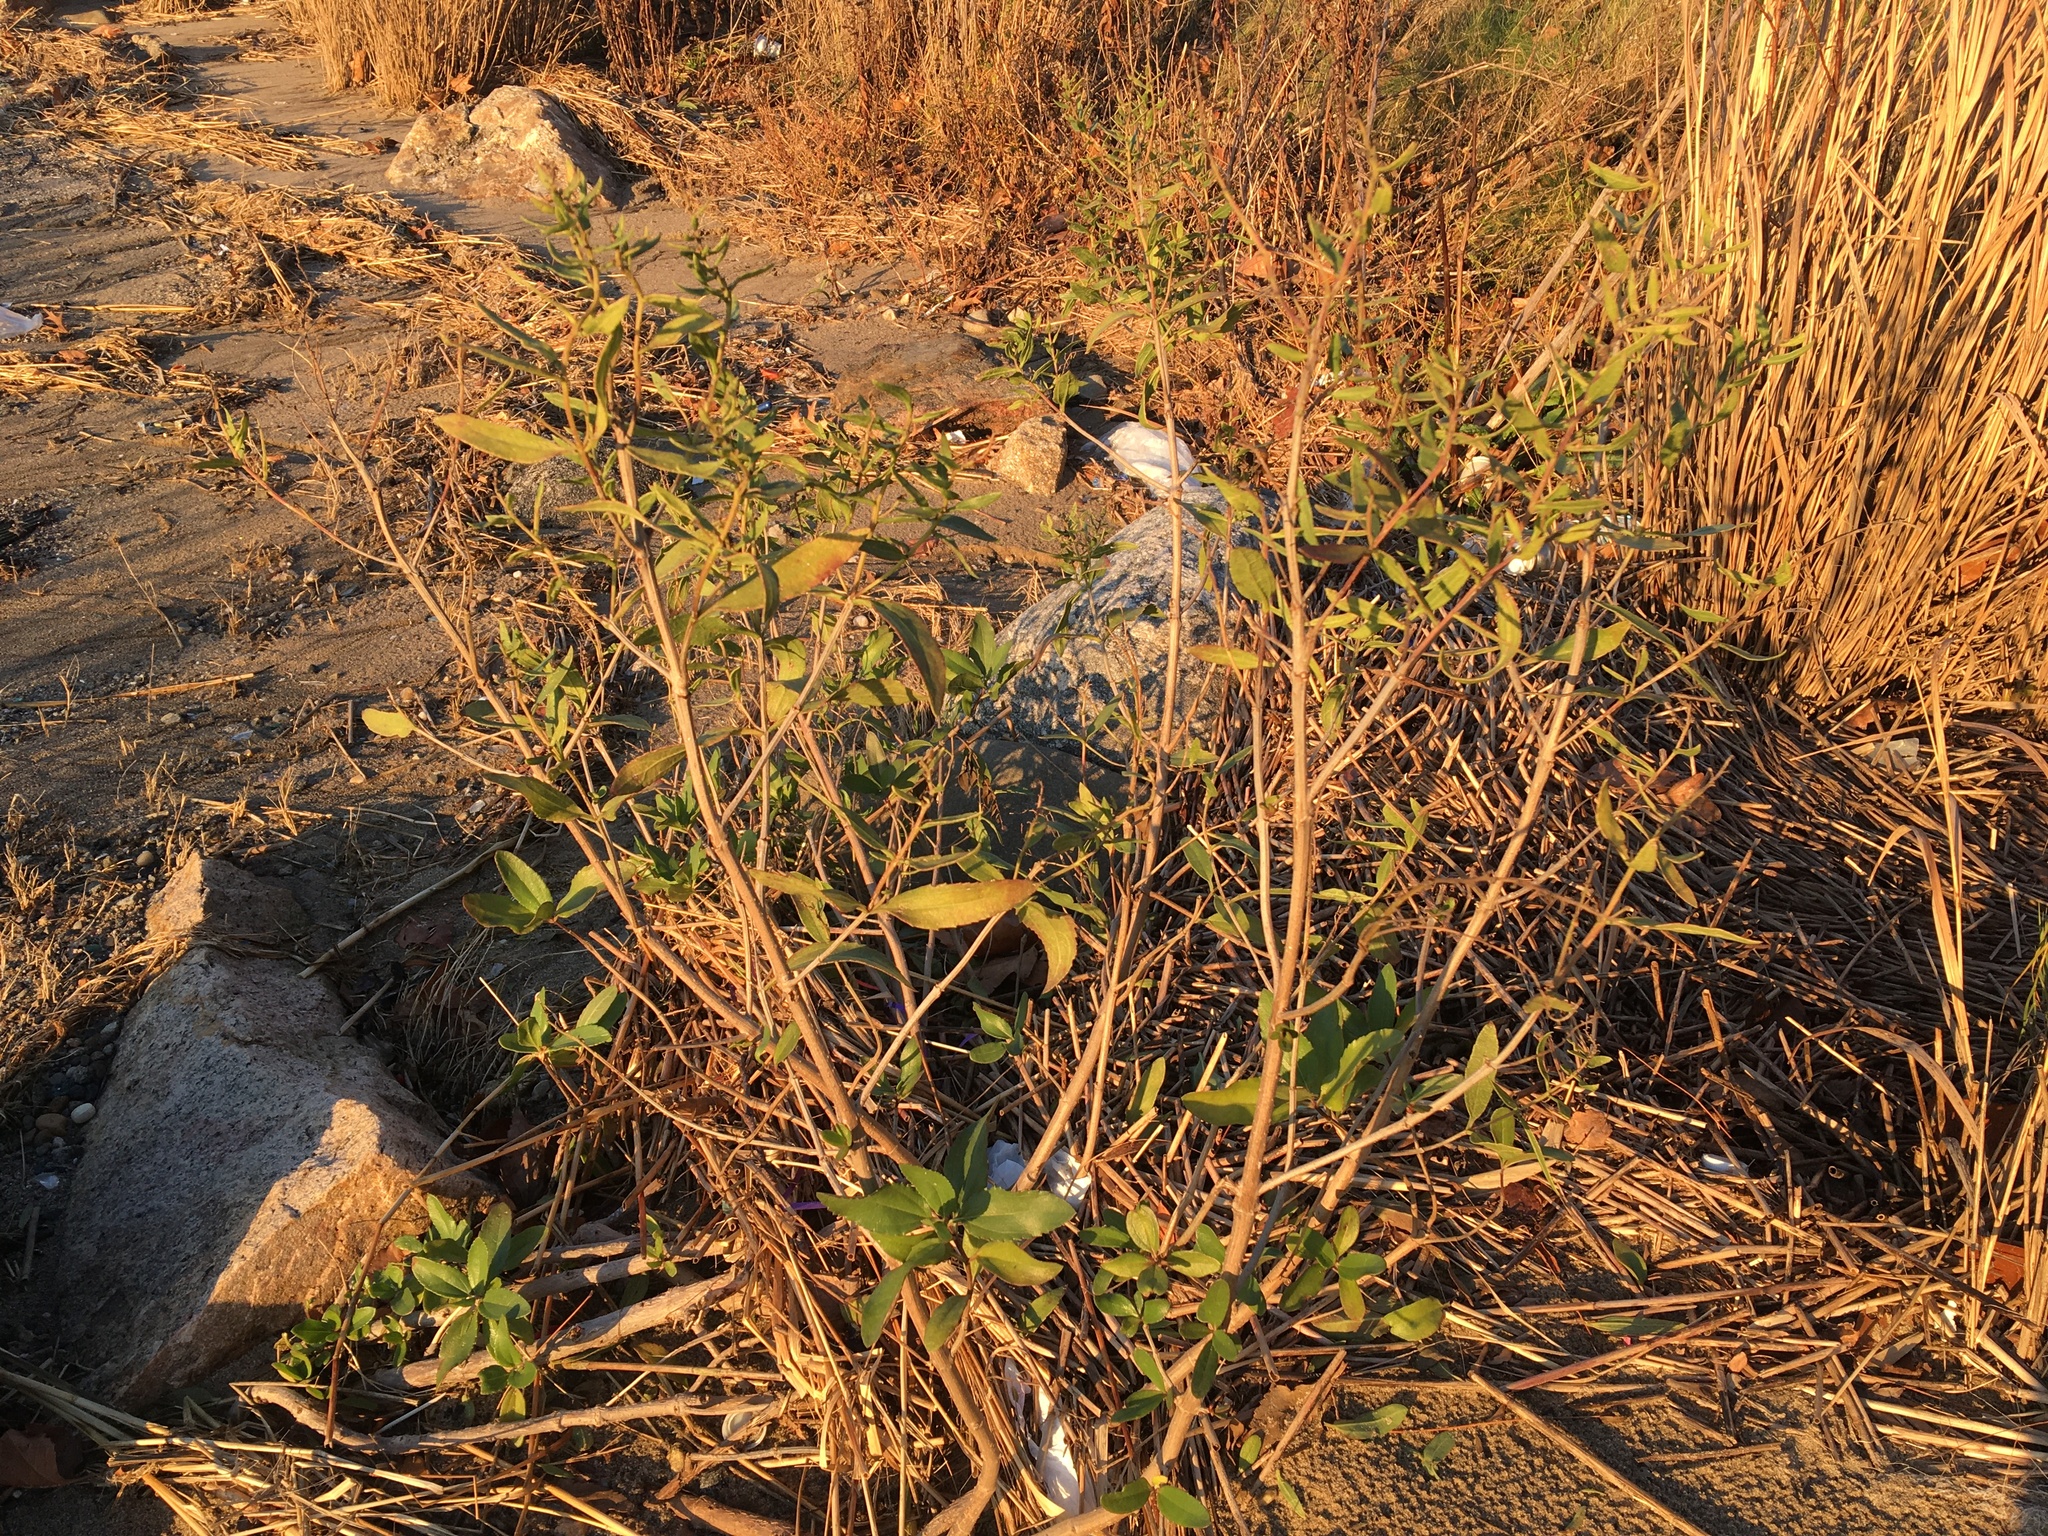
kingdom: Plantae
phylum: Tracheophyta
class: Magnoliopsida
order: Asterales
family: Asteraceae
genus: Iva
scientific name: Iva frutescens
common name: Big-leaved marsh-elder
